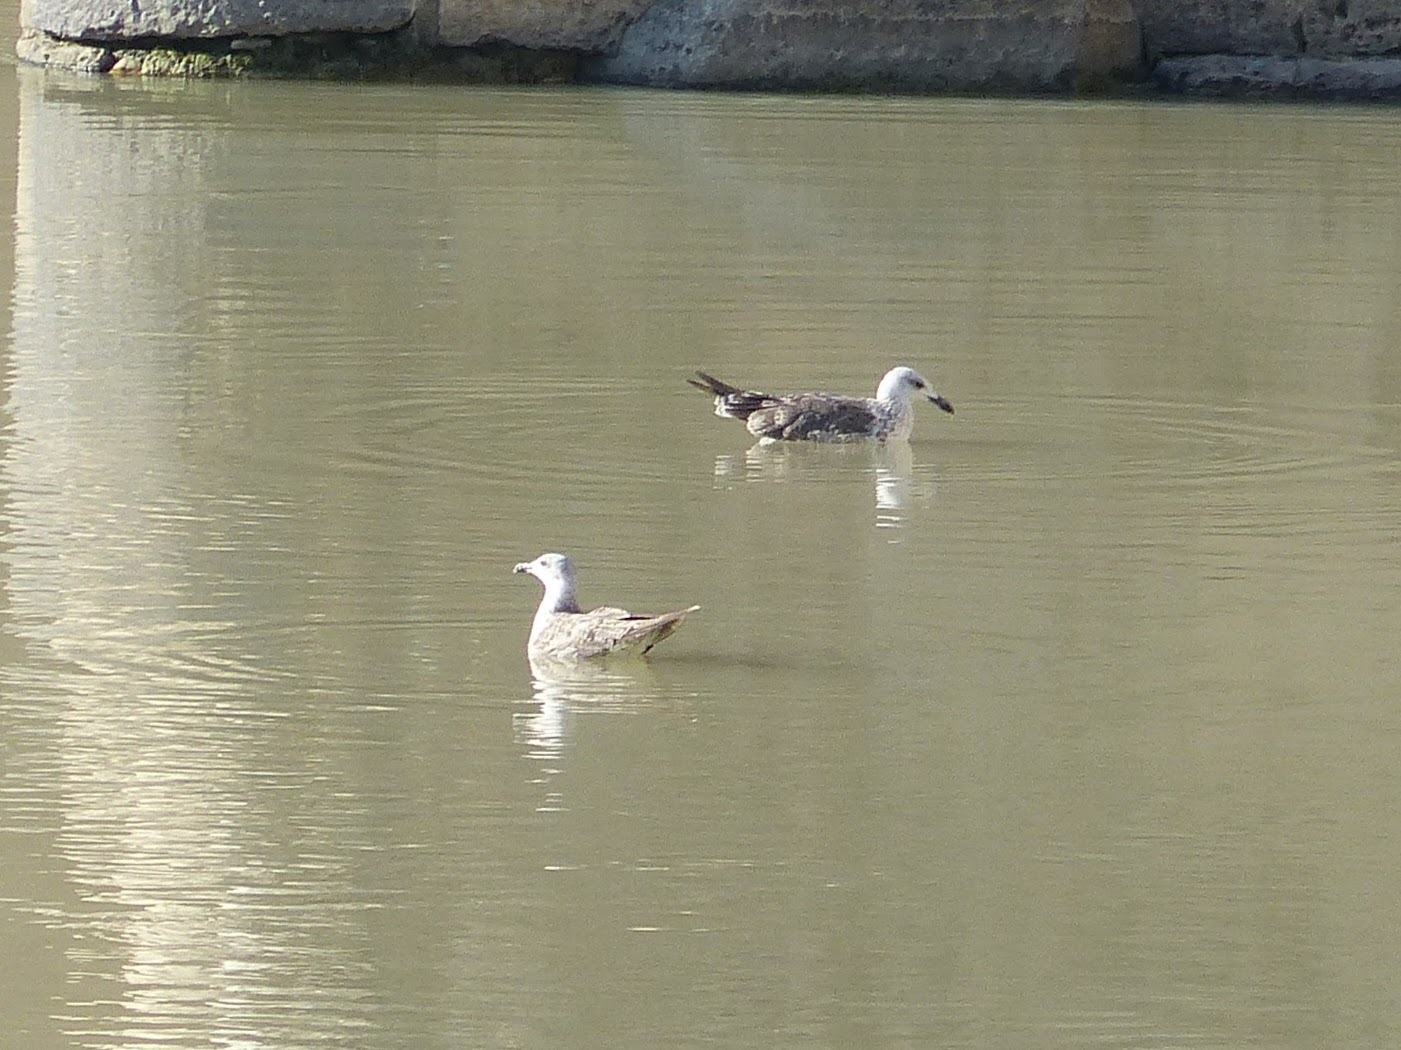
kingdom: Animalia
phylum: Chordata
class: Aves
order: Charadriiformes
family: Laridae
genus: Larus
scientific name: Larus fuscus
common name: Lesser black-backed gull
